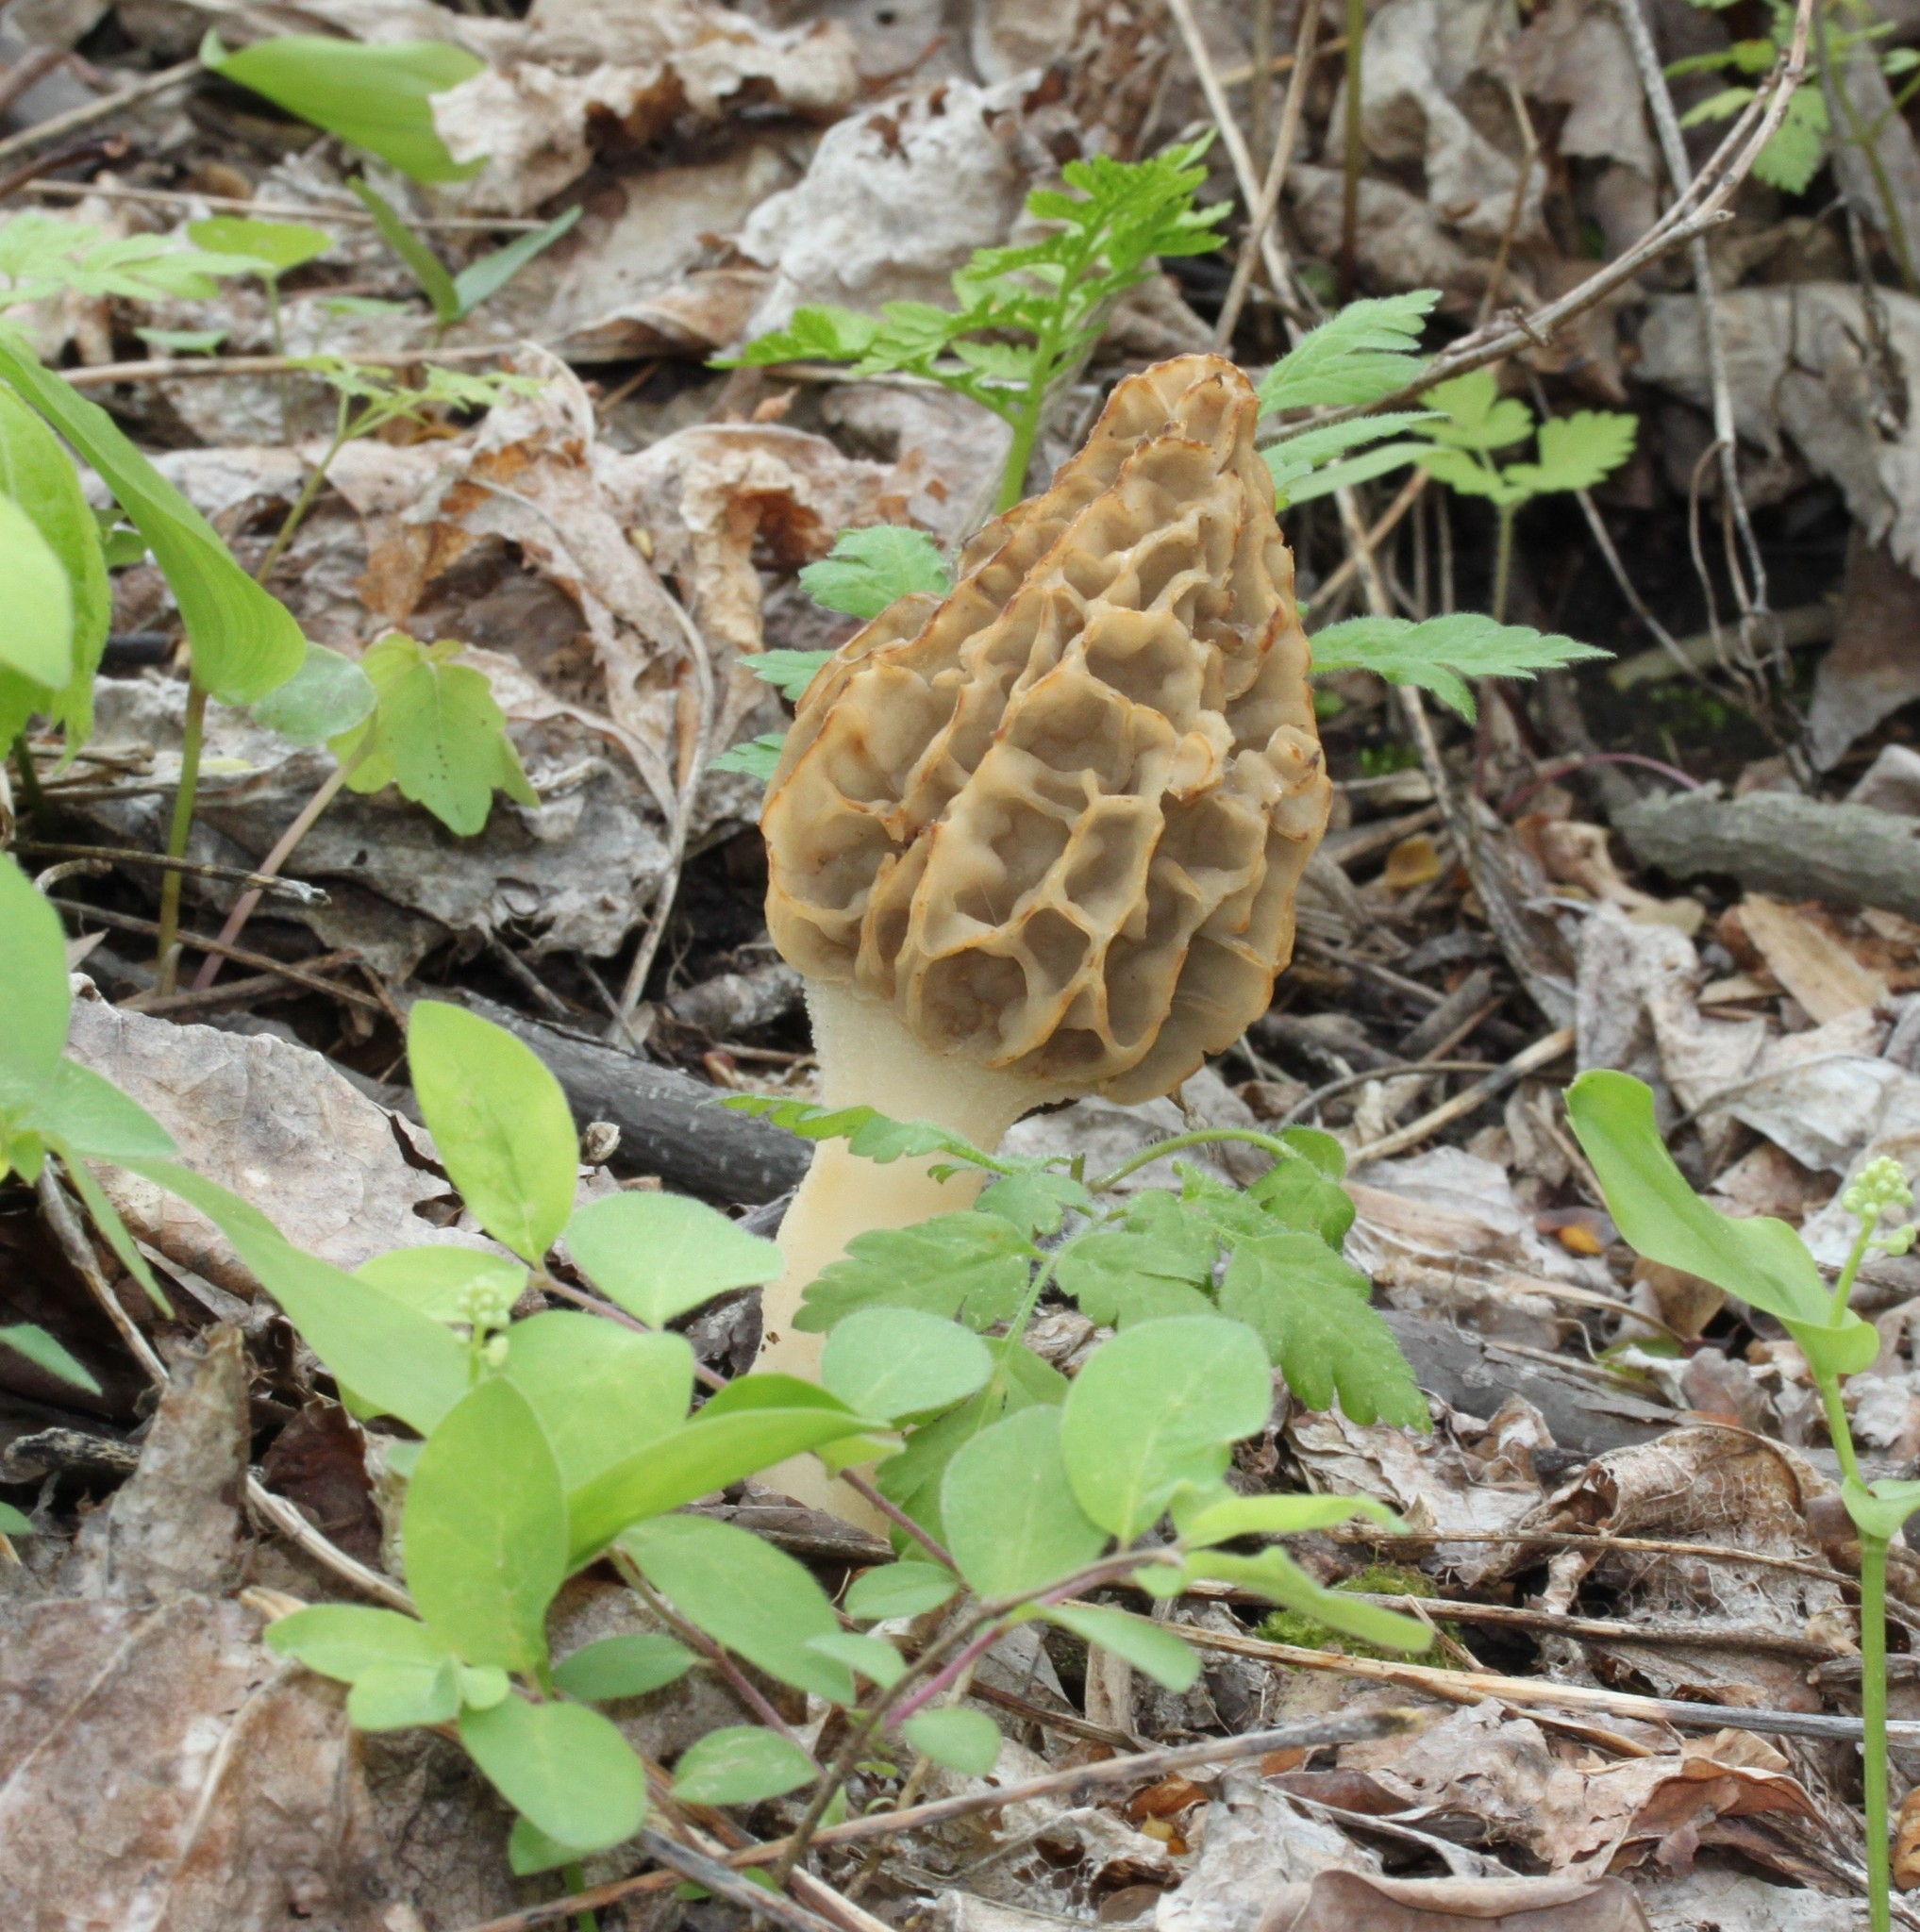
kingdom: Fungi
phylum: Ascomycota
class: Pezizomycetes
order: Pezizales
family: Morchellaceae
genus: Morchella
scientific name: Morchella americana
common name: White morel
